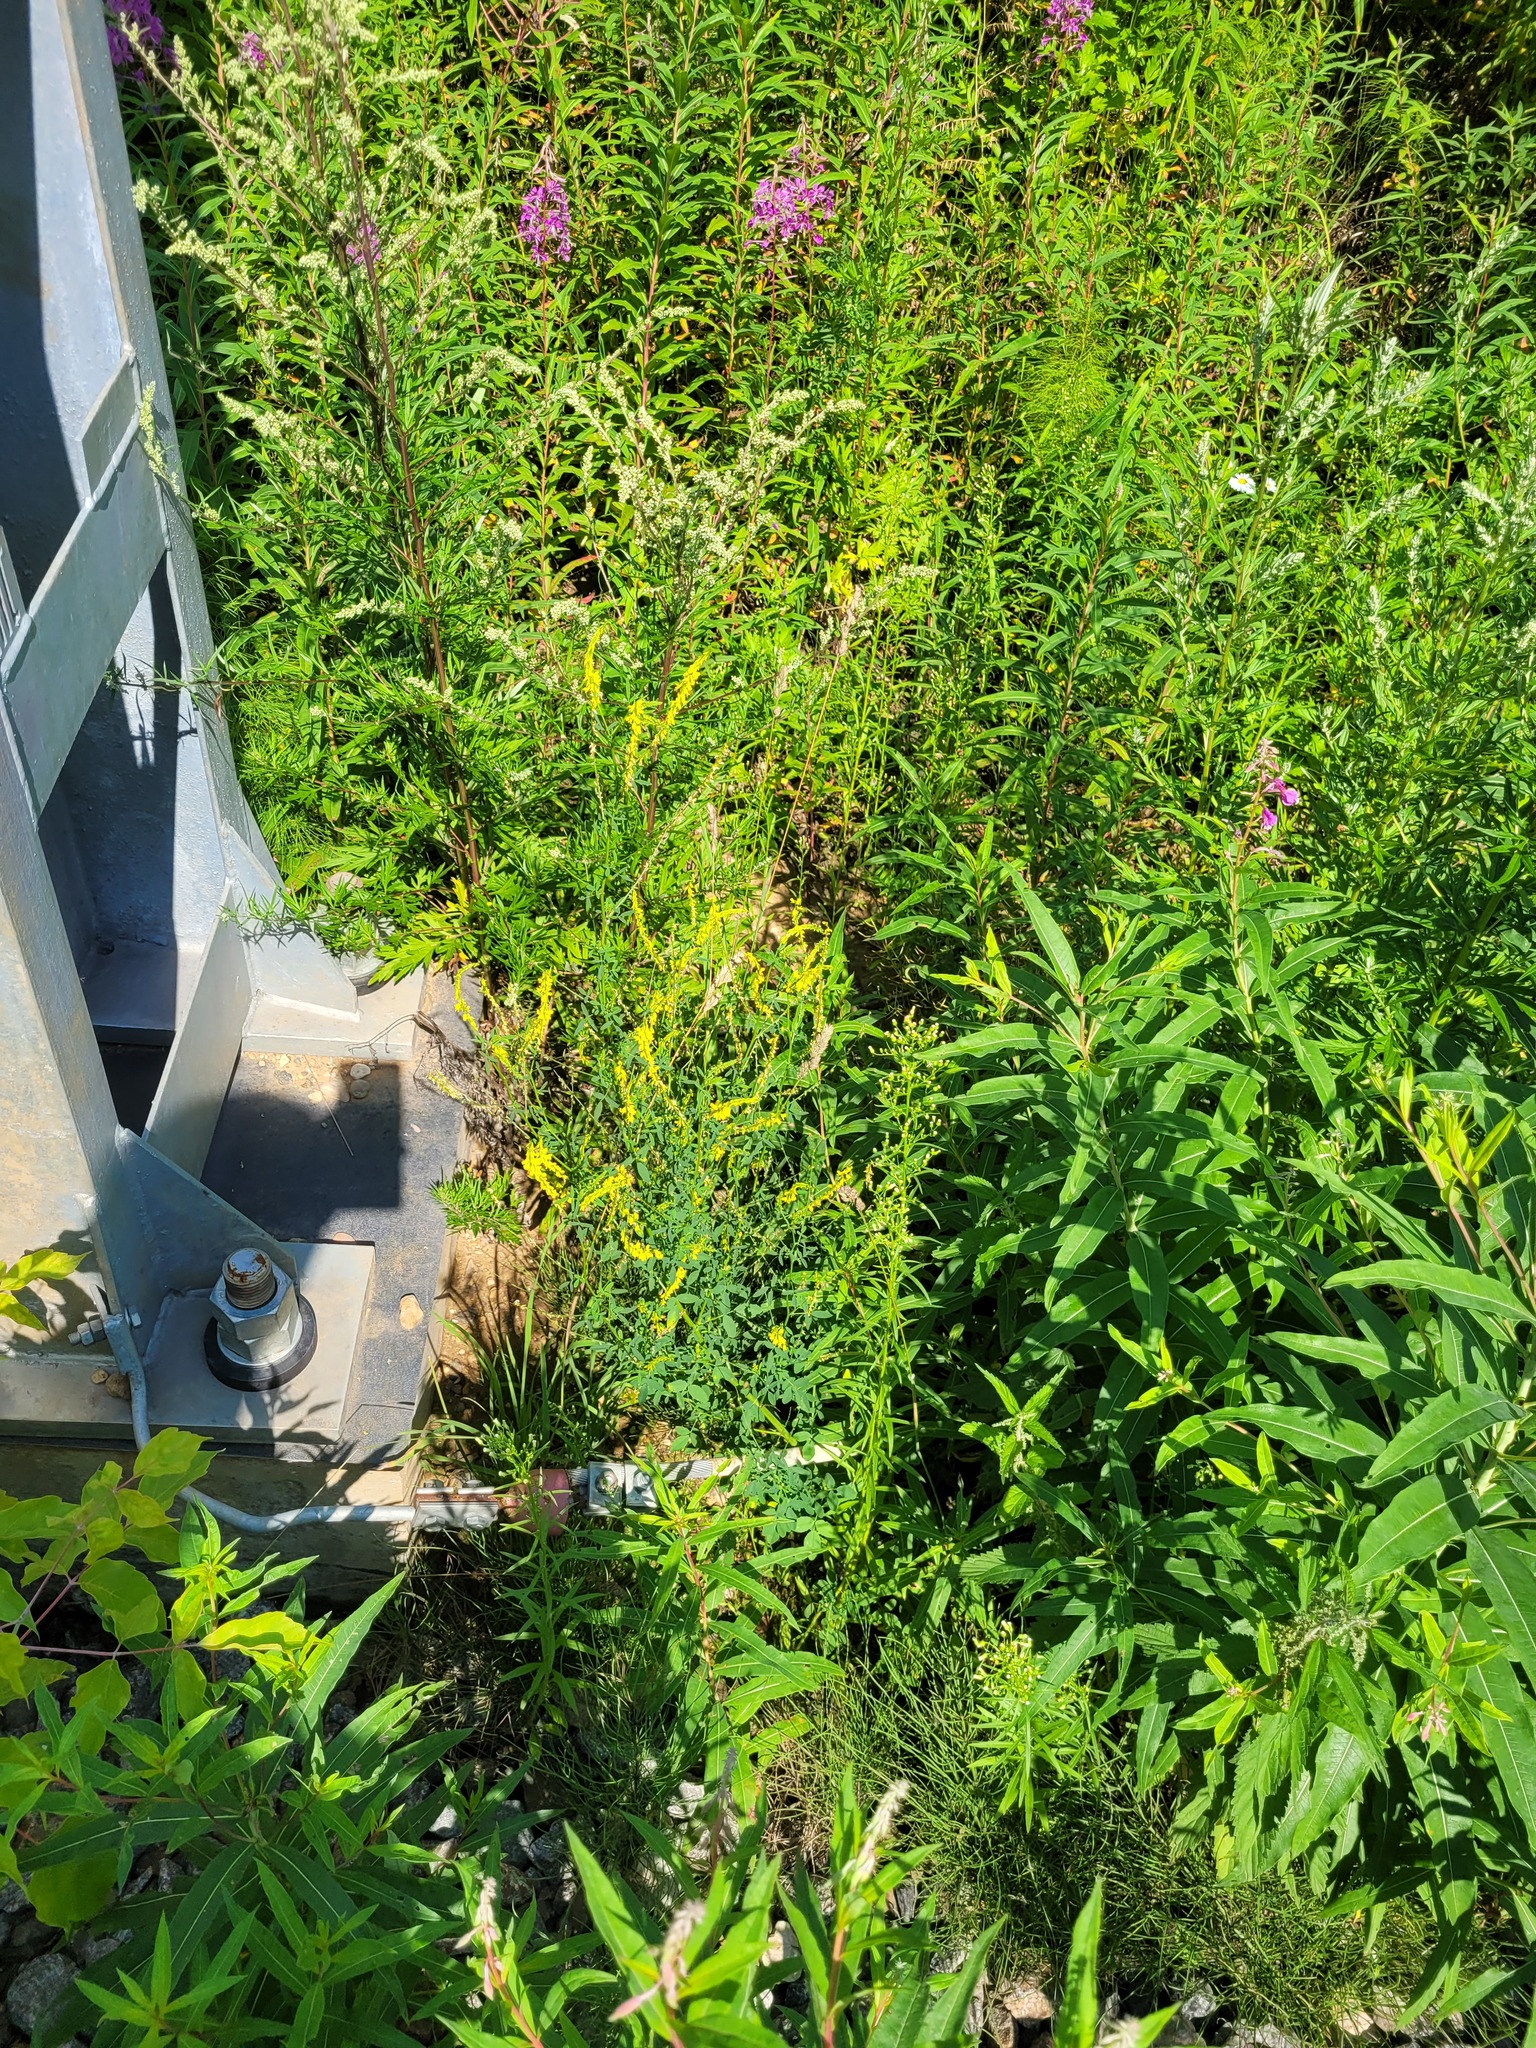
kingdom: Plantae
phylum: Tracheophyta
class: Magnoliopsida
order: Fabales
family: Fabaceae
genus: Melilotus
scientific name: Melilotus officinalis
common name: Sweetclover
